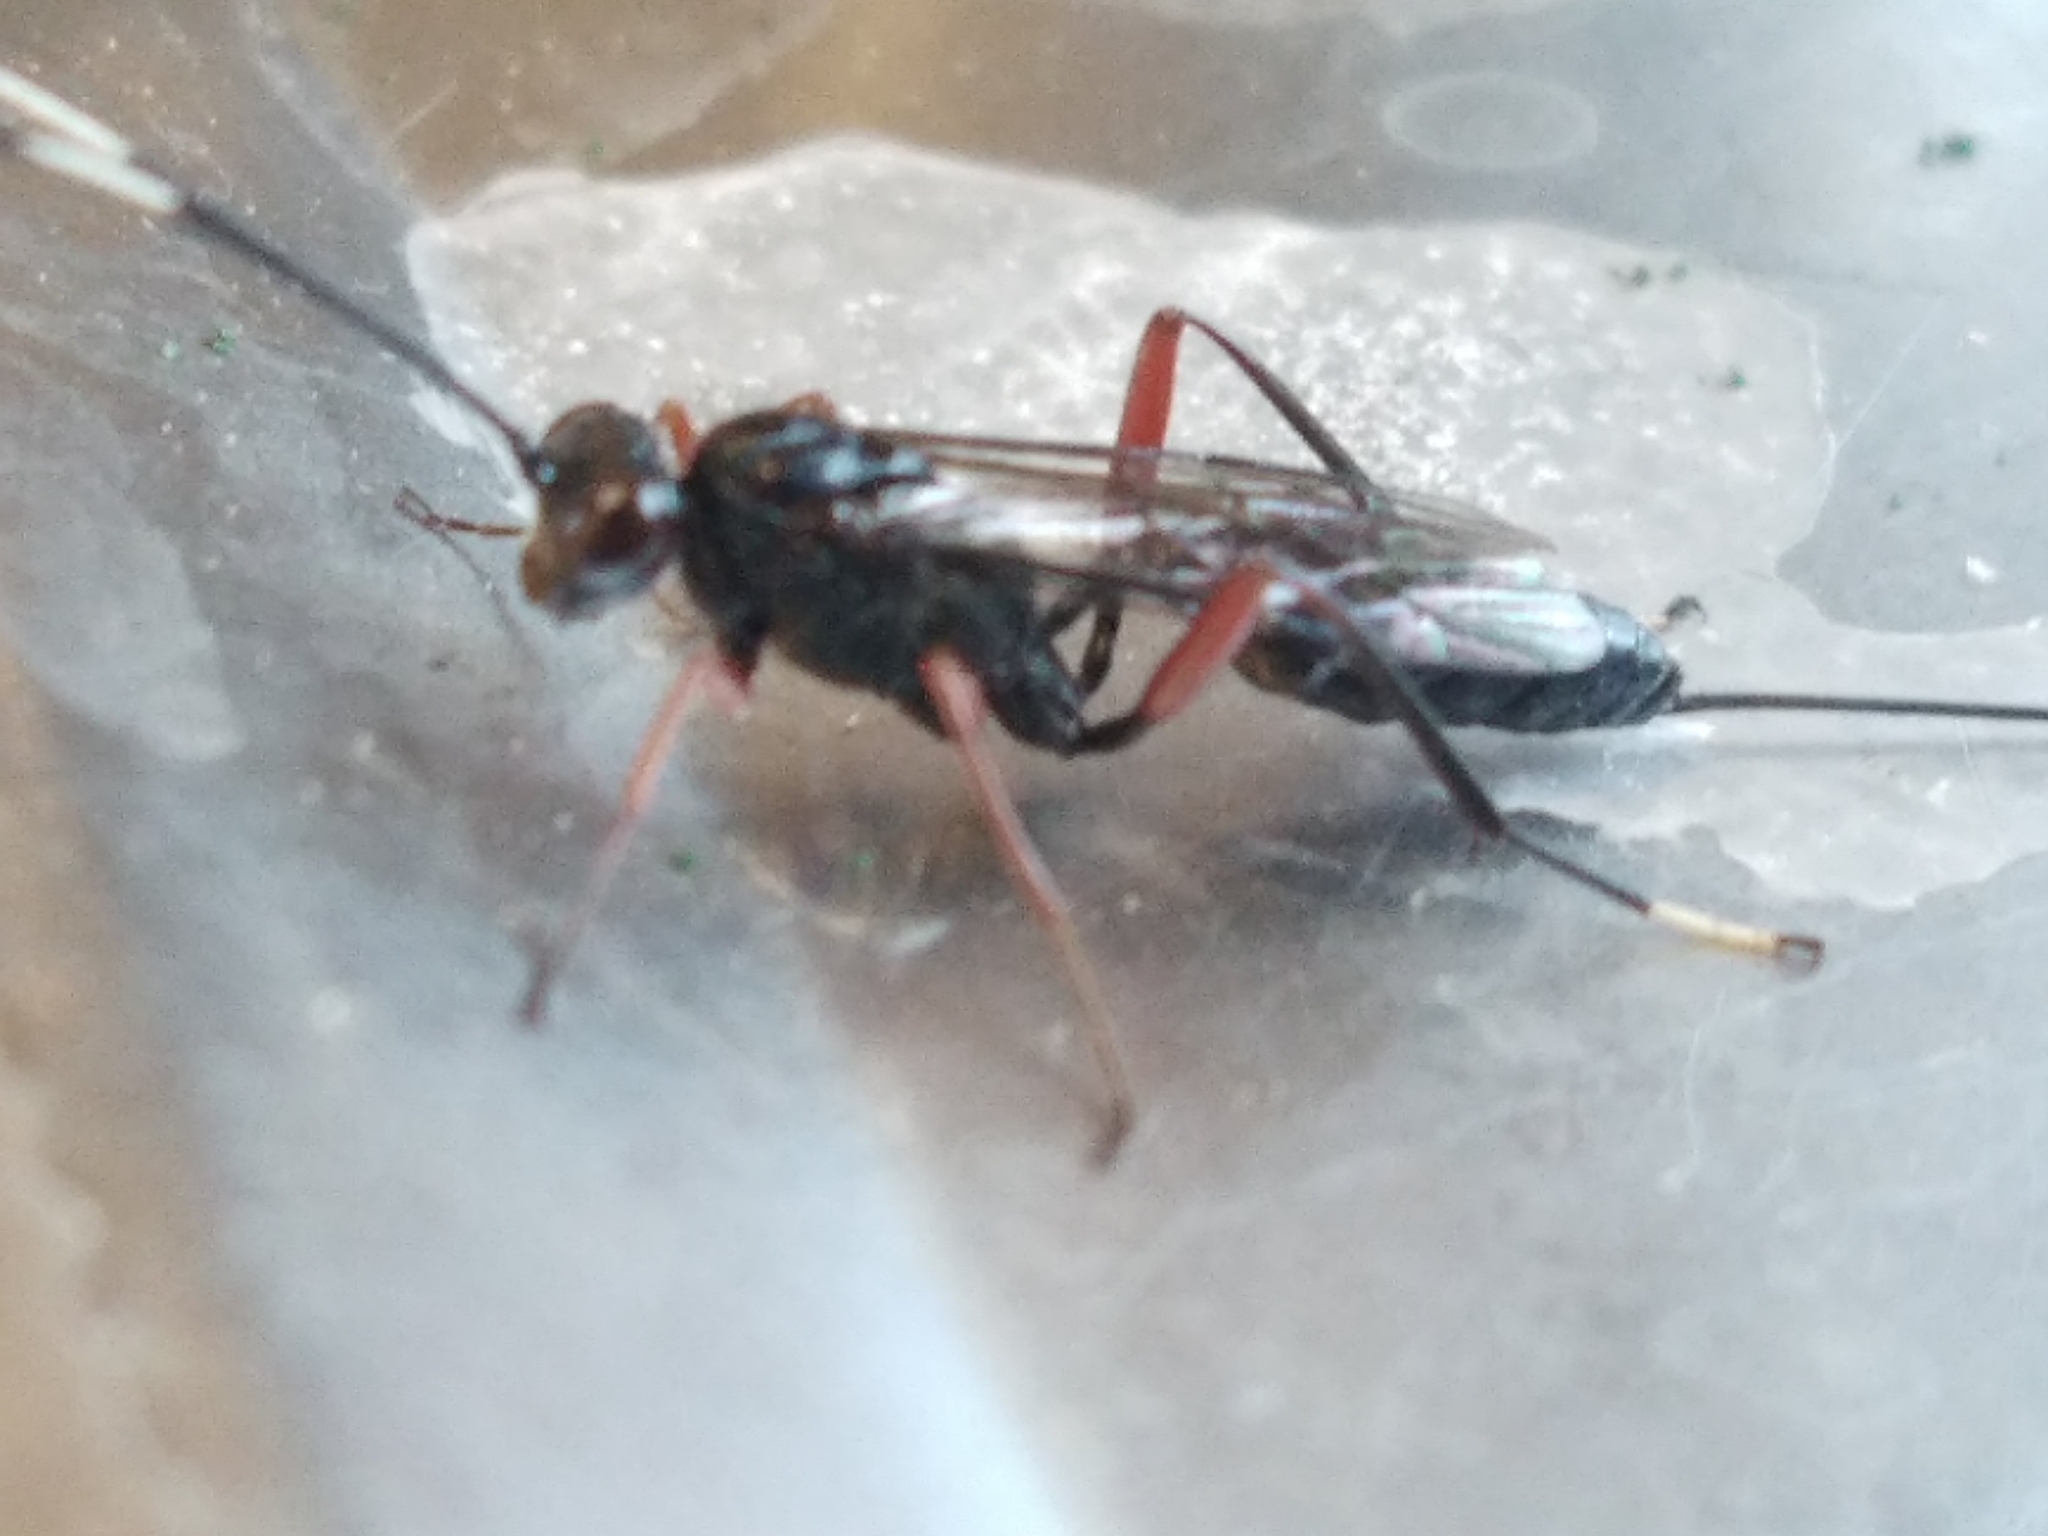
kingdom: Animalia
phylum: Arthropoda
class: Insecta
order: Hymenoptera
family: Ichneumonidae
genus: Stenarella
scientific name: Stenarella domator
